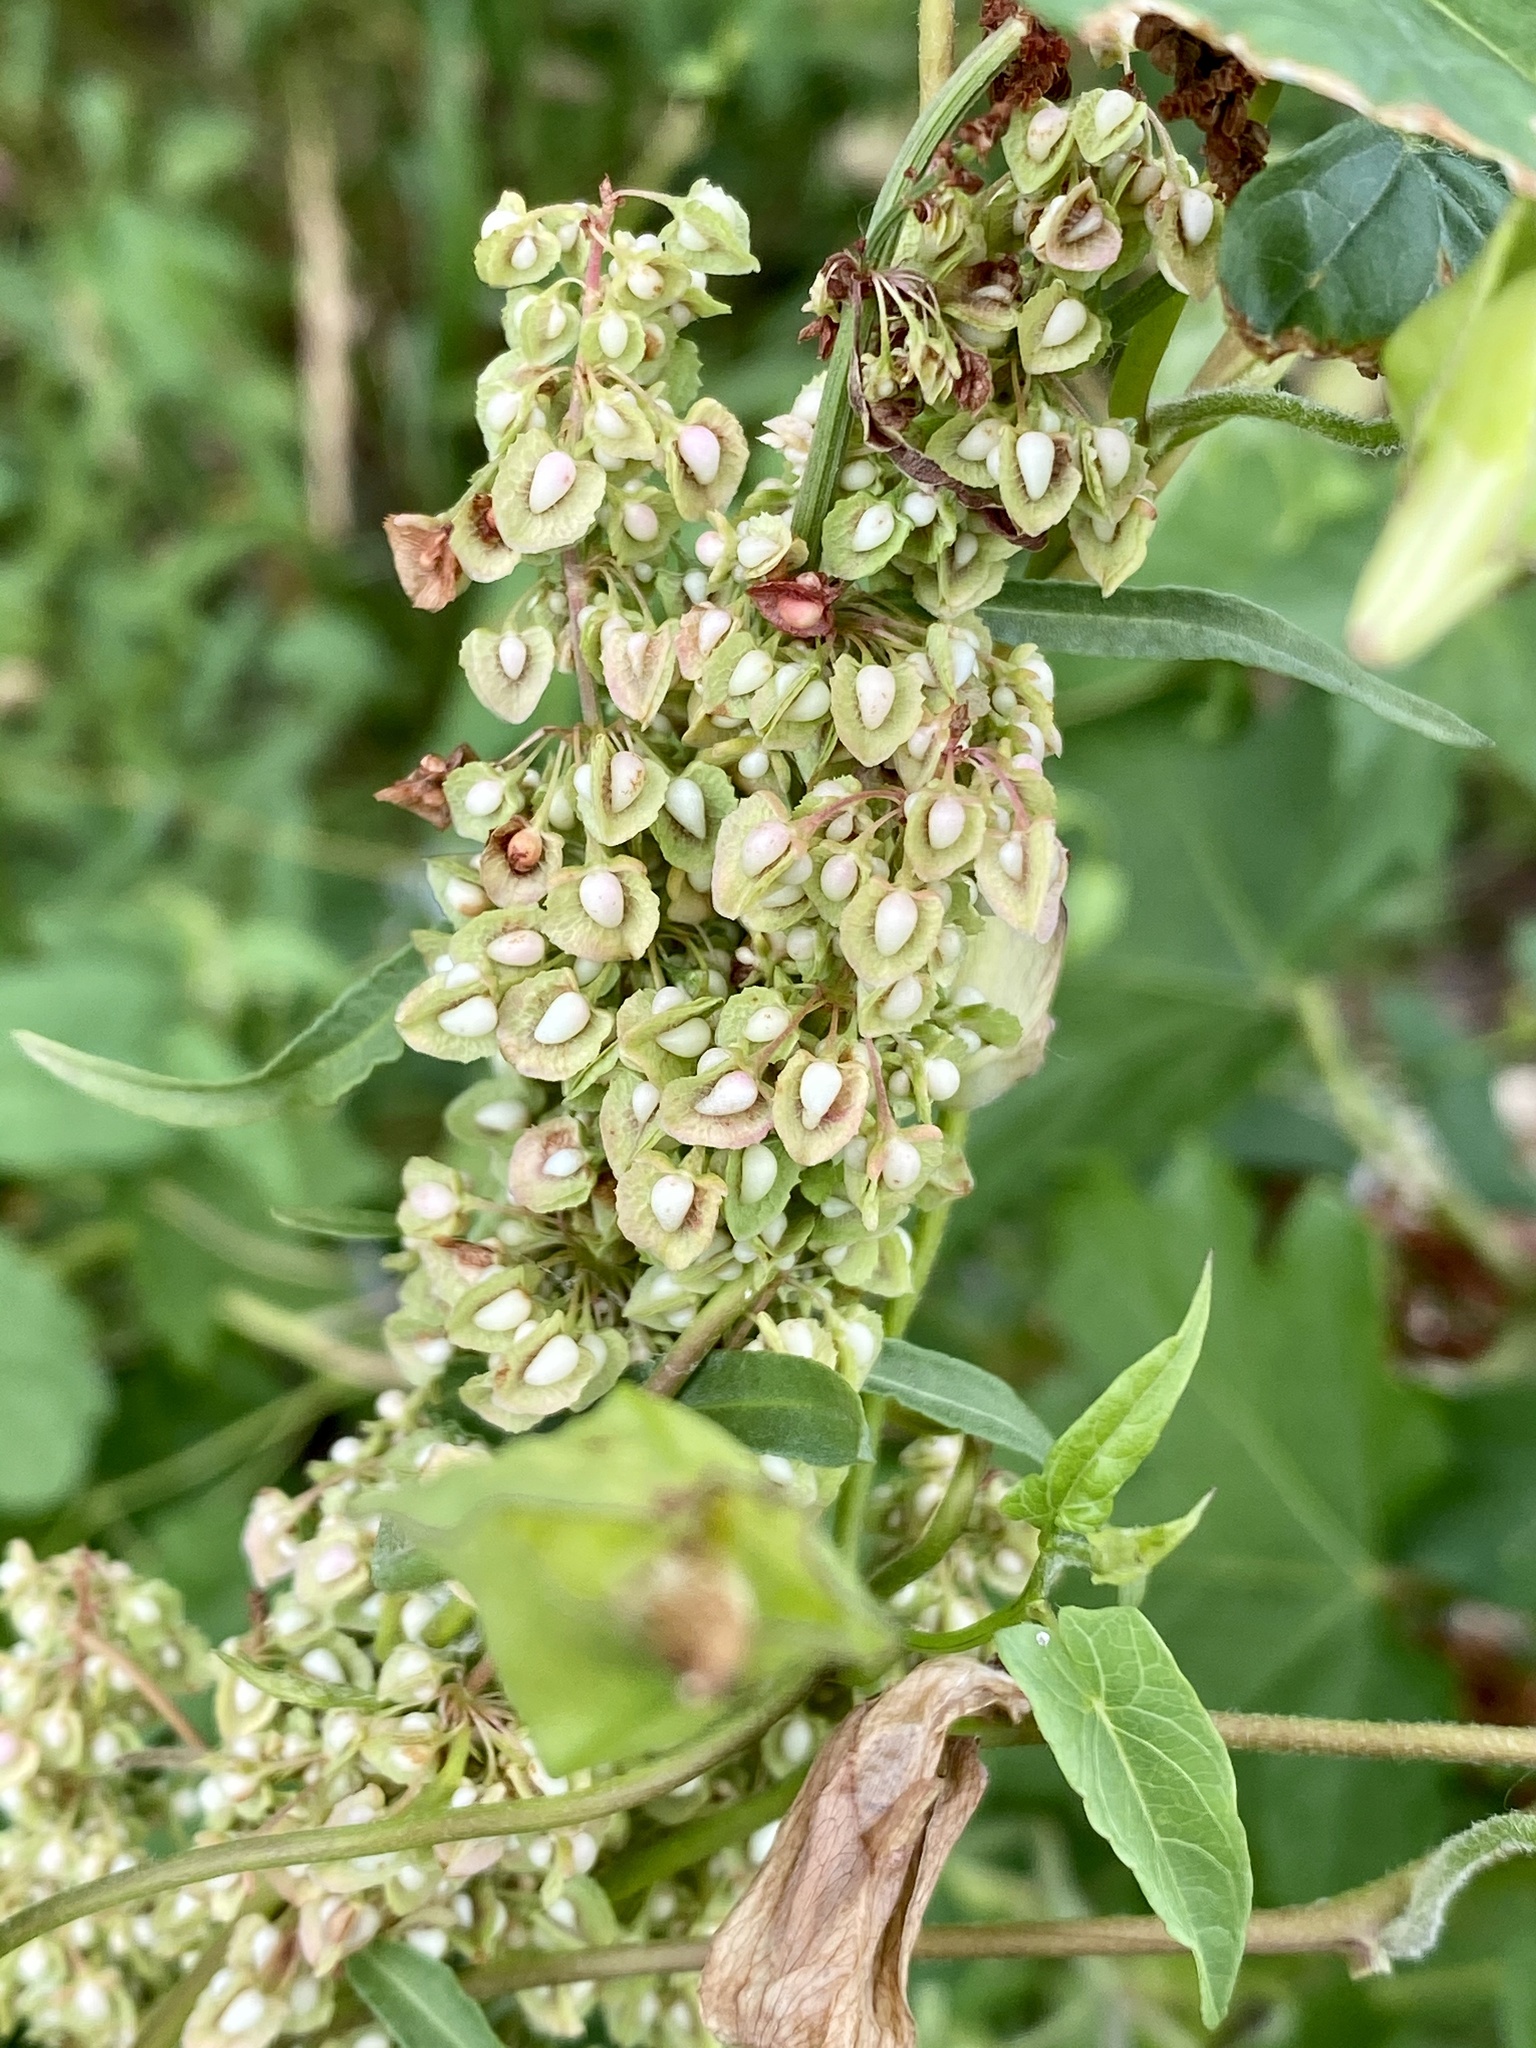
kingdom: Plantae
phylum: Tracheophyta
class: Magnoliopsida
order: Caryophyllales
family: Polygonaceae
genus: Rumex
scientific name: Rumex crispus
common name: Curled dock
